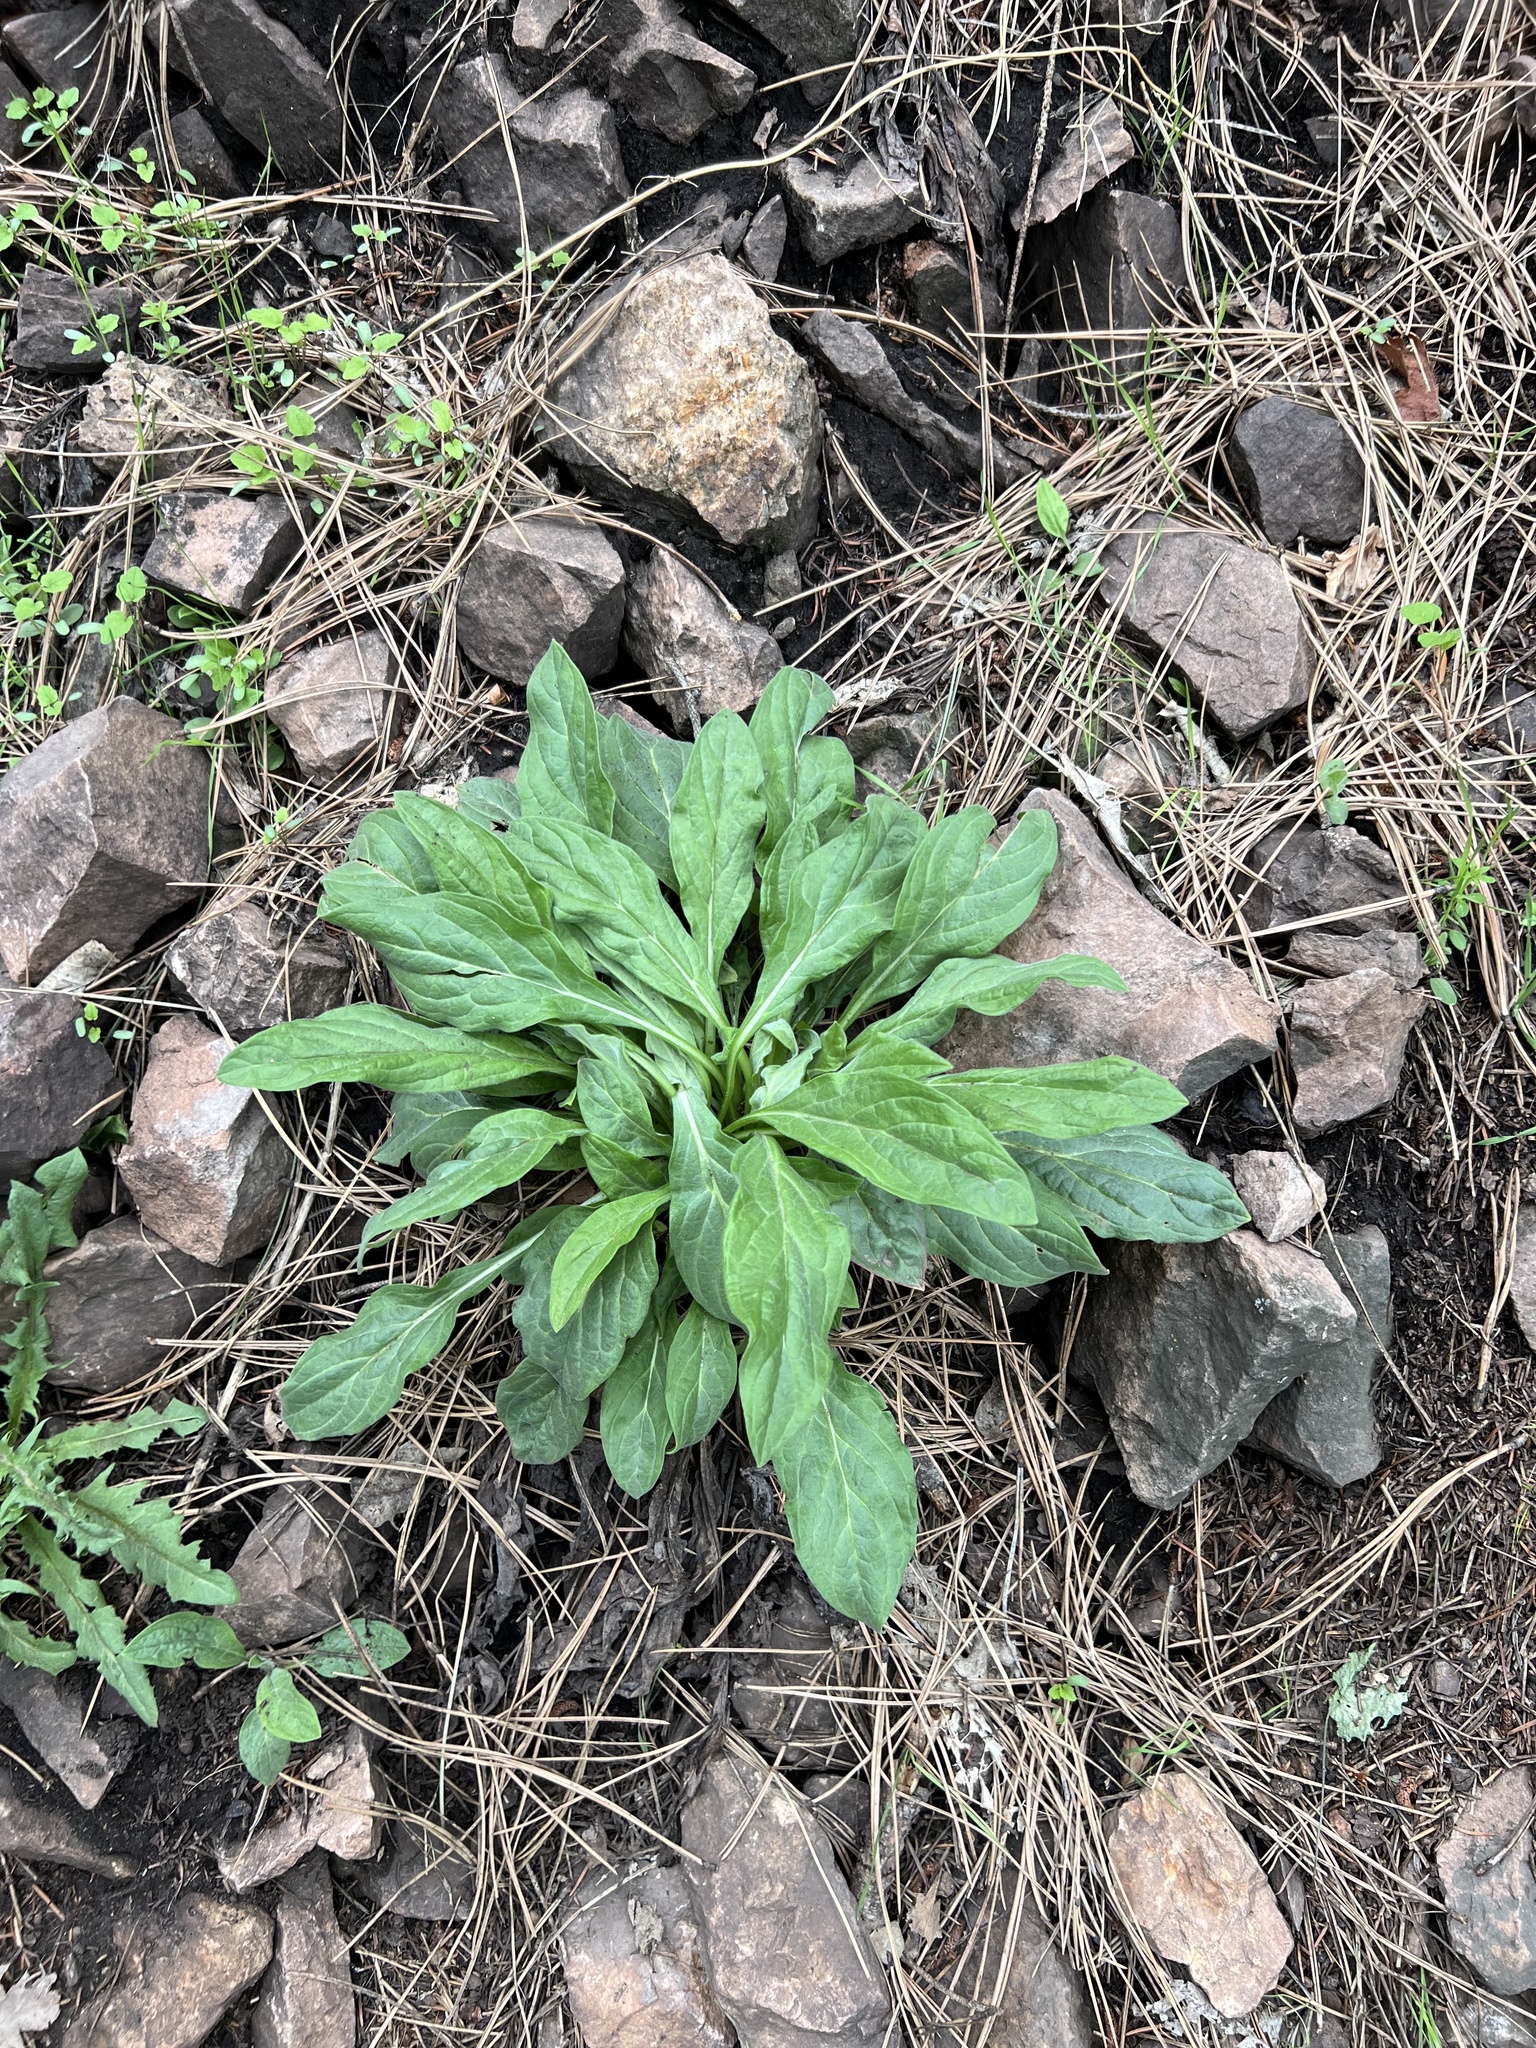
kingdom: Plantae
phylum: Tracheophyta
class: Magnoliopsida
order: Boraginales
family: Boraginaceae
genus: Cynoglossum
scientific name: Cynoglossum officinale
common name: Hound's-tongue
